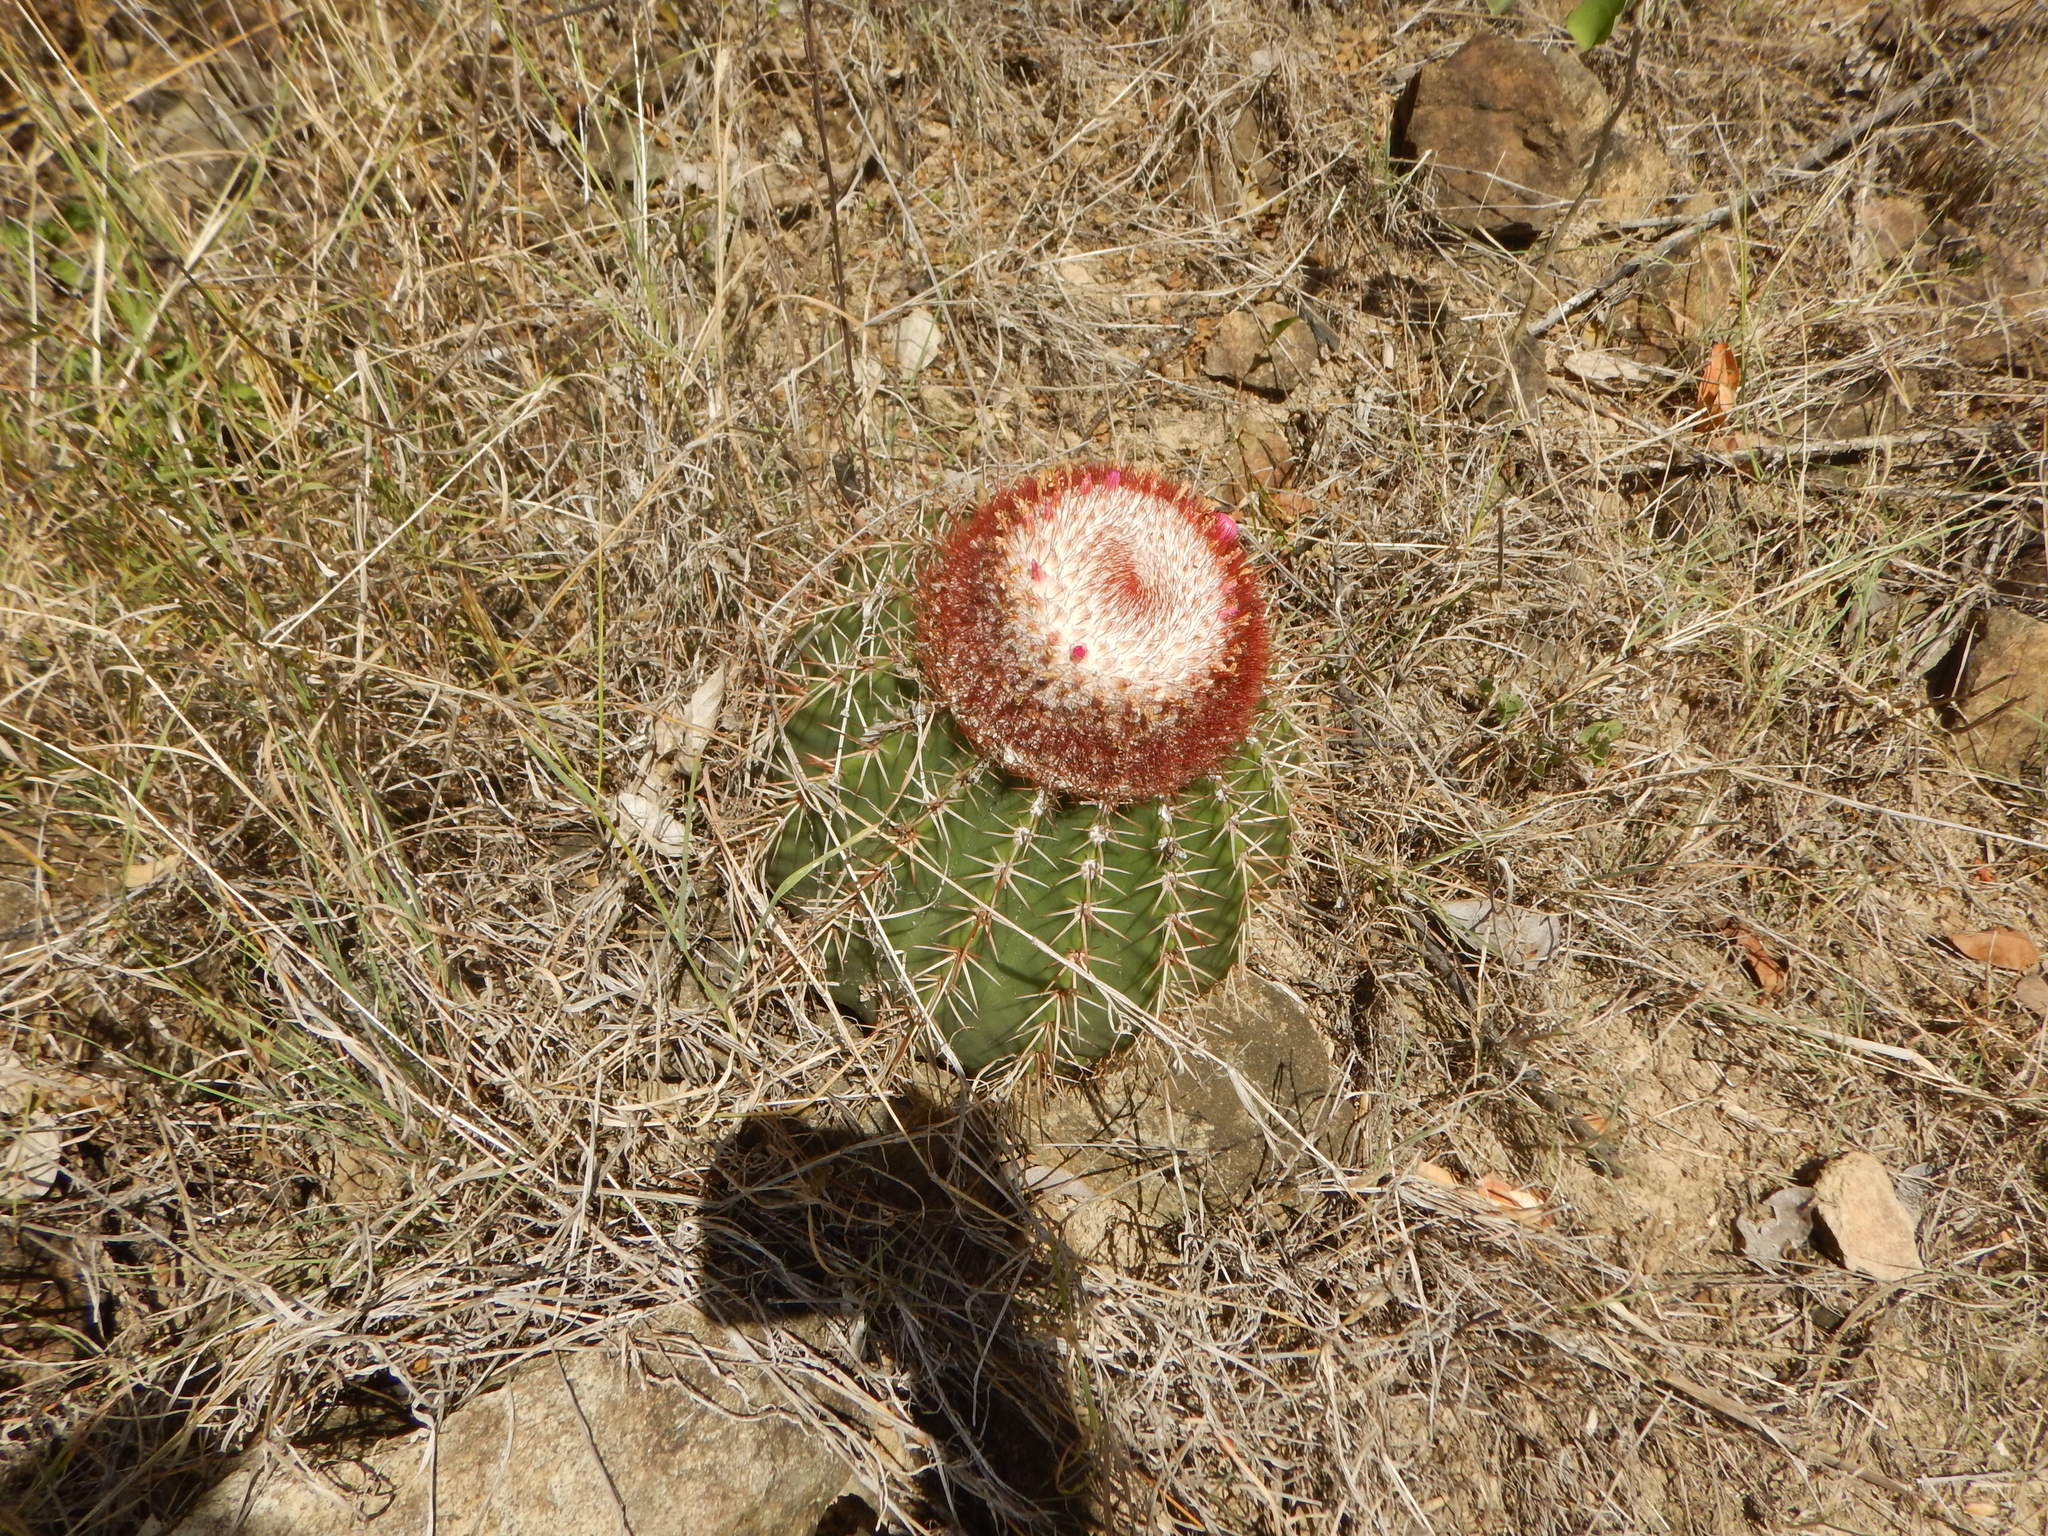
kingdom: Plantae
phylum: Tracheophyta
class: Magnoliopsida
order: Caryophyllales
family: Cactaceae
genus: Melocactus
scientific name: Melocactus intortus
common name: Barrel cactus
